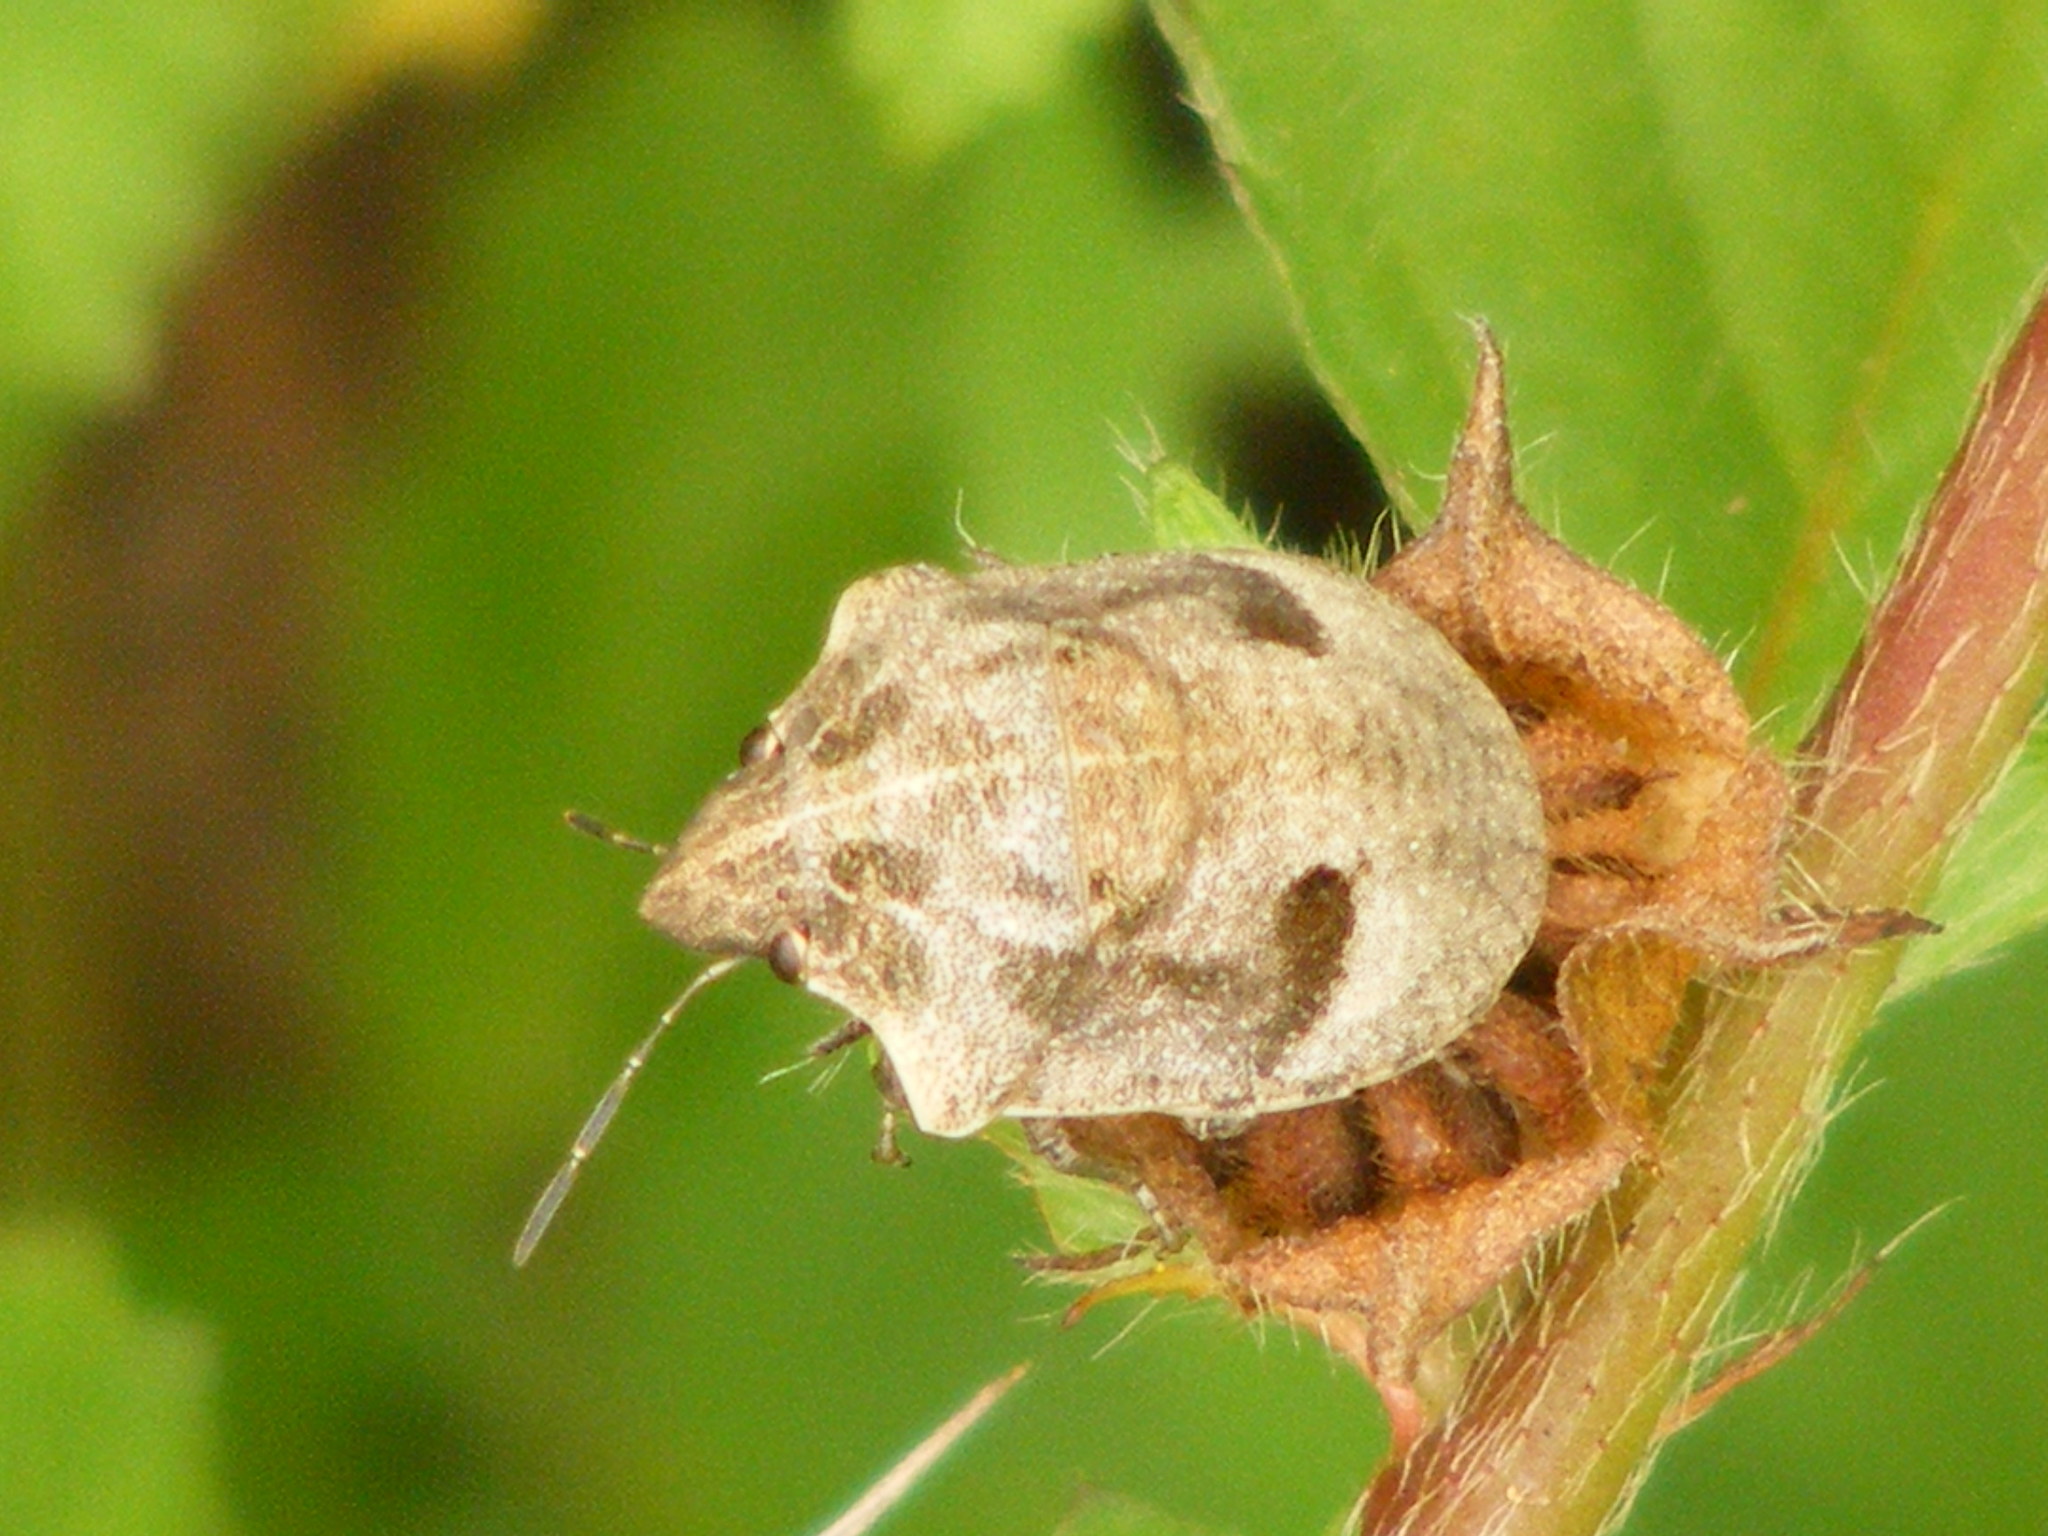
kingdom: Animalia
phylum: Arthropoda
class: Insecta
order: Hemiptera
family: Scutelleridae
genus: Hotea
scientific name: Hotea subfasciata
